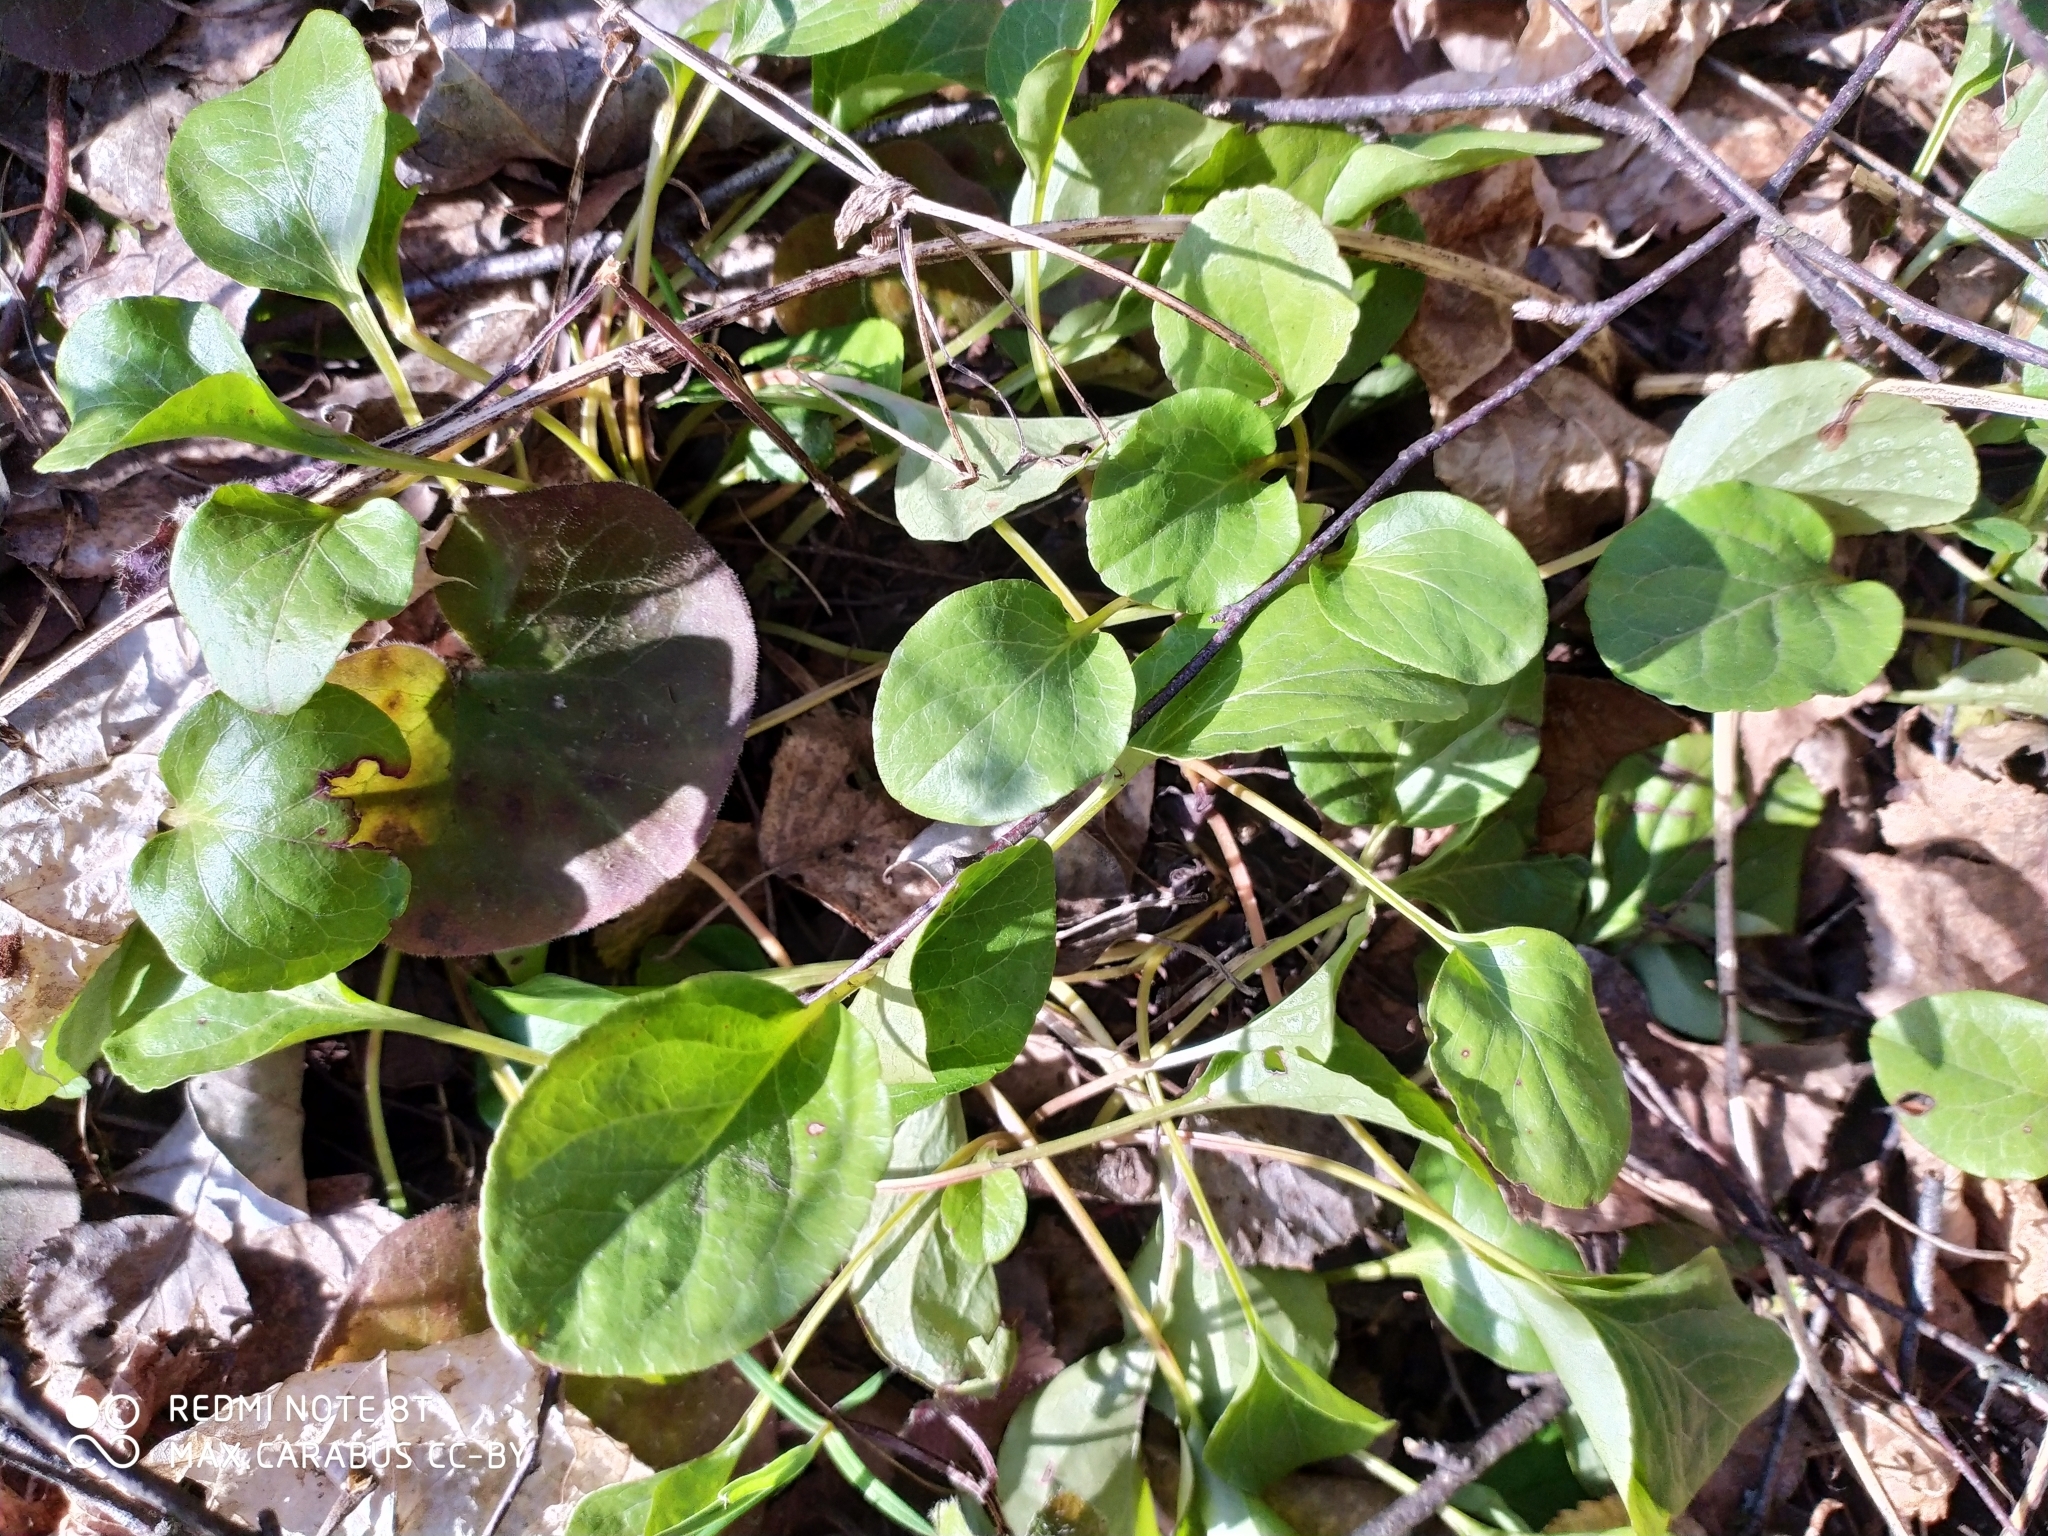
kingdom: Plantae
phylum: Tracheophyta
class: Magnoliopsida
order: Ericales
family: Ericaceae
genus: Pyrola
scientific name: Pyrola
